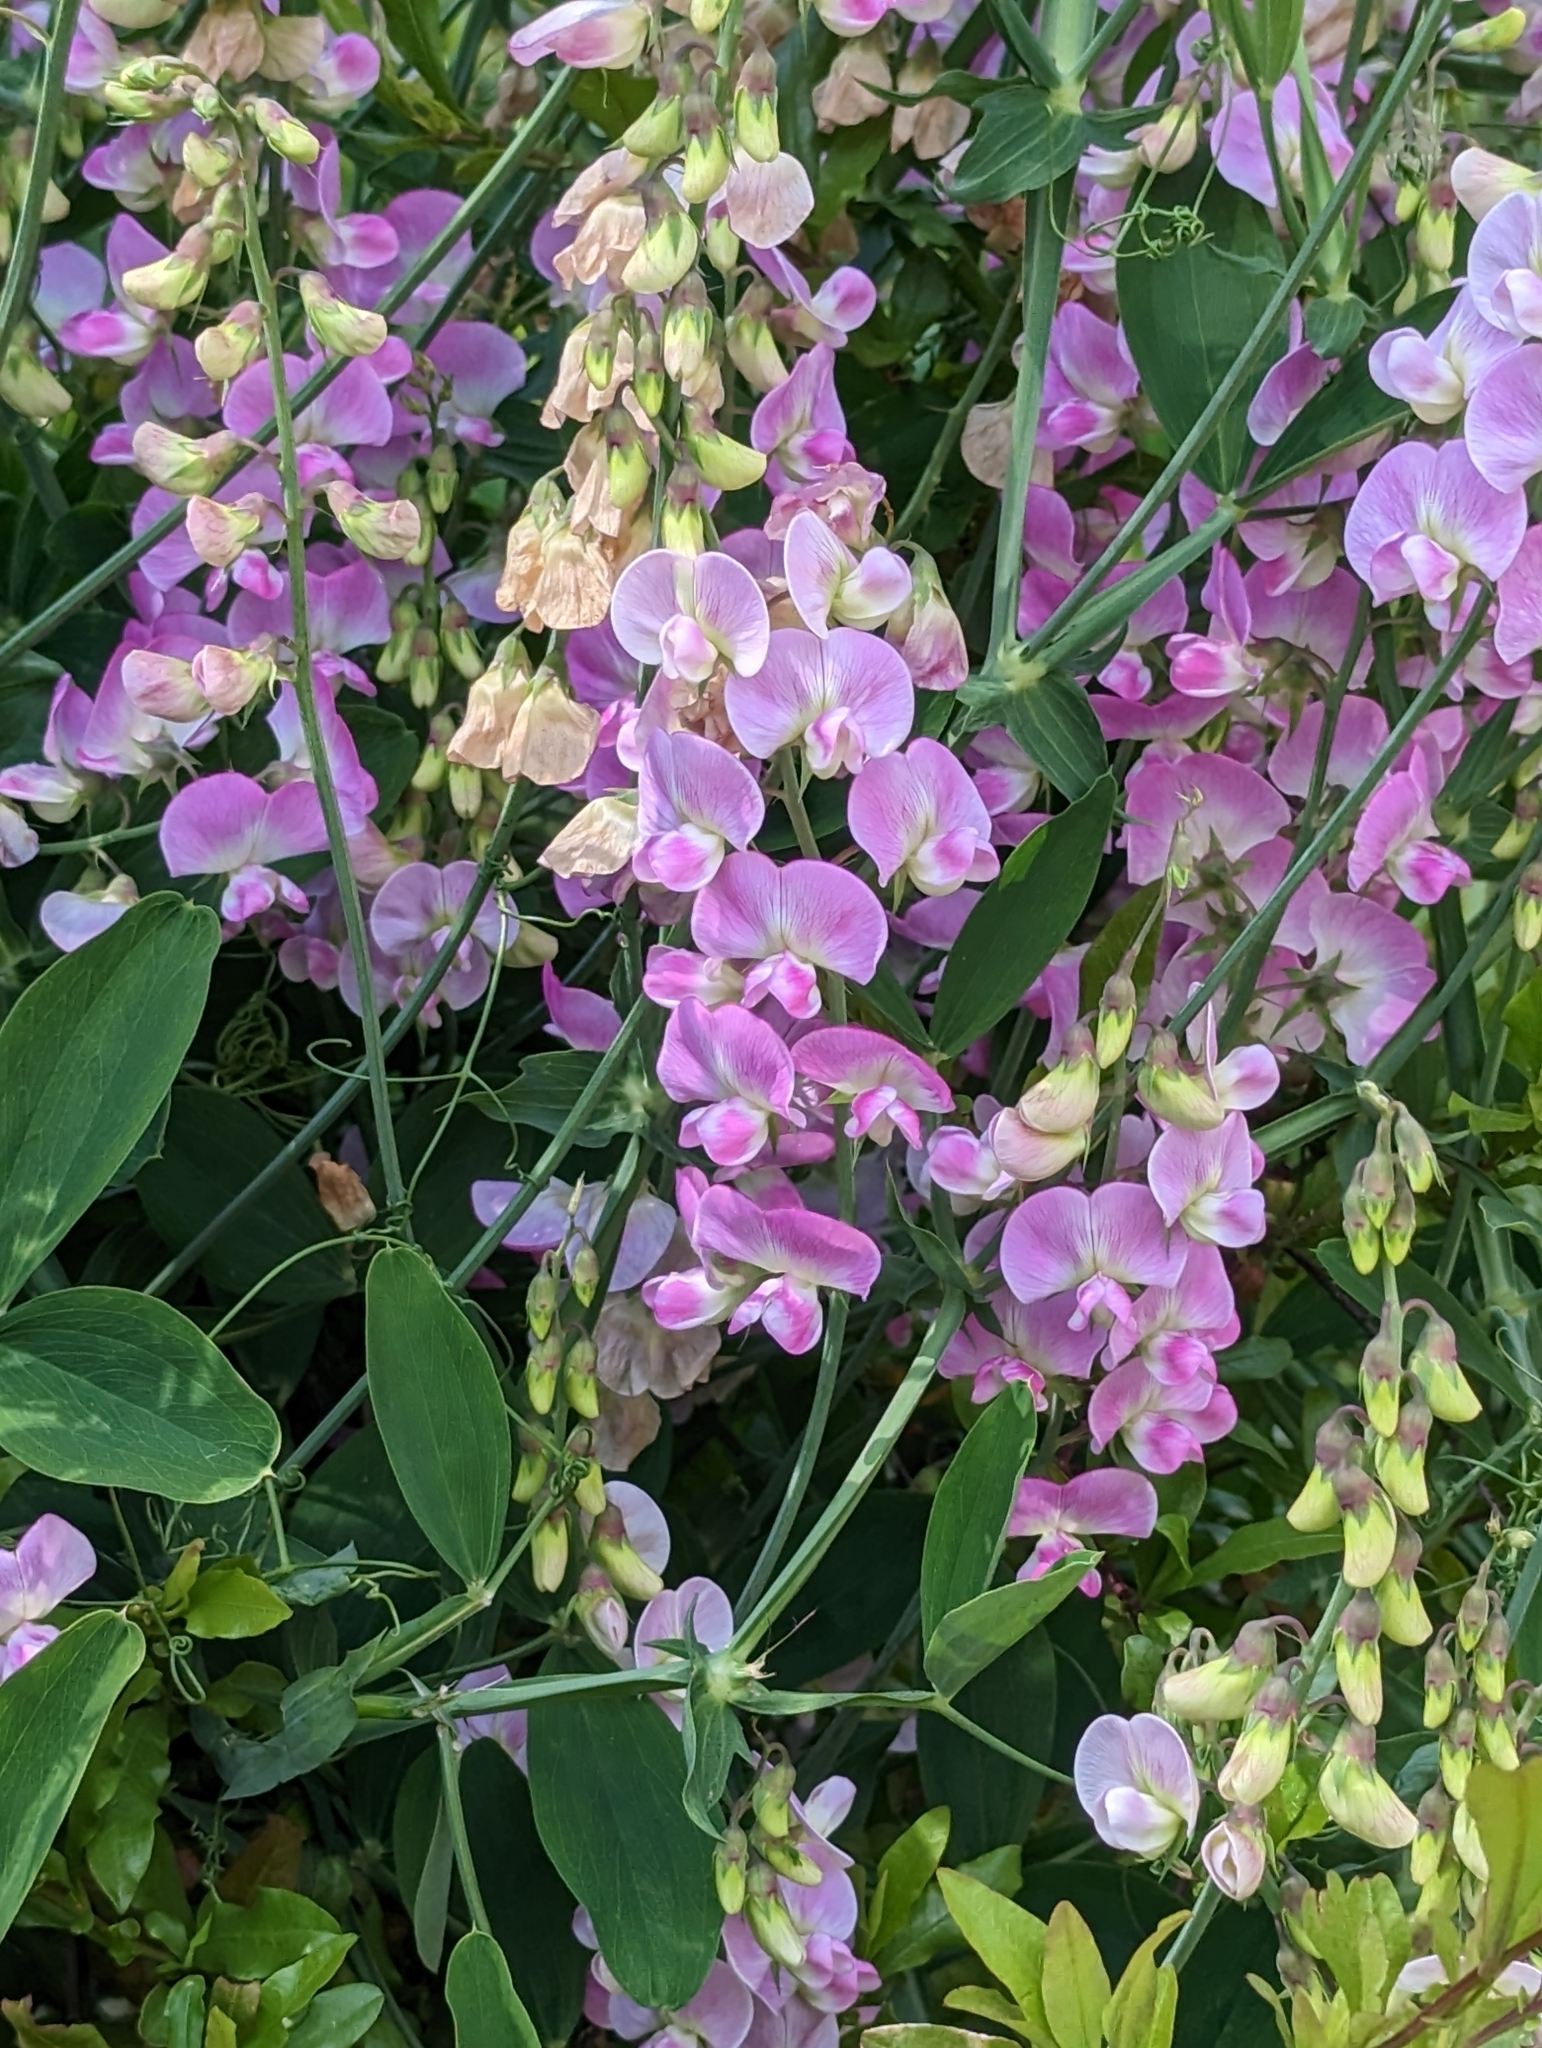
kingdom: Plantae
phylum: Tracheophyta
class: Magnoliopsida
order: Fabales
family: Fabaceae
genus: Lathyrus
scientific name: Lathyrus latifolius
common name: Perennial pea
